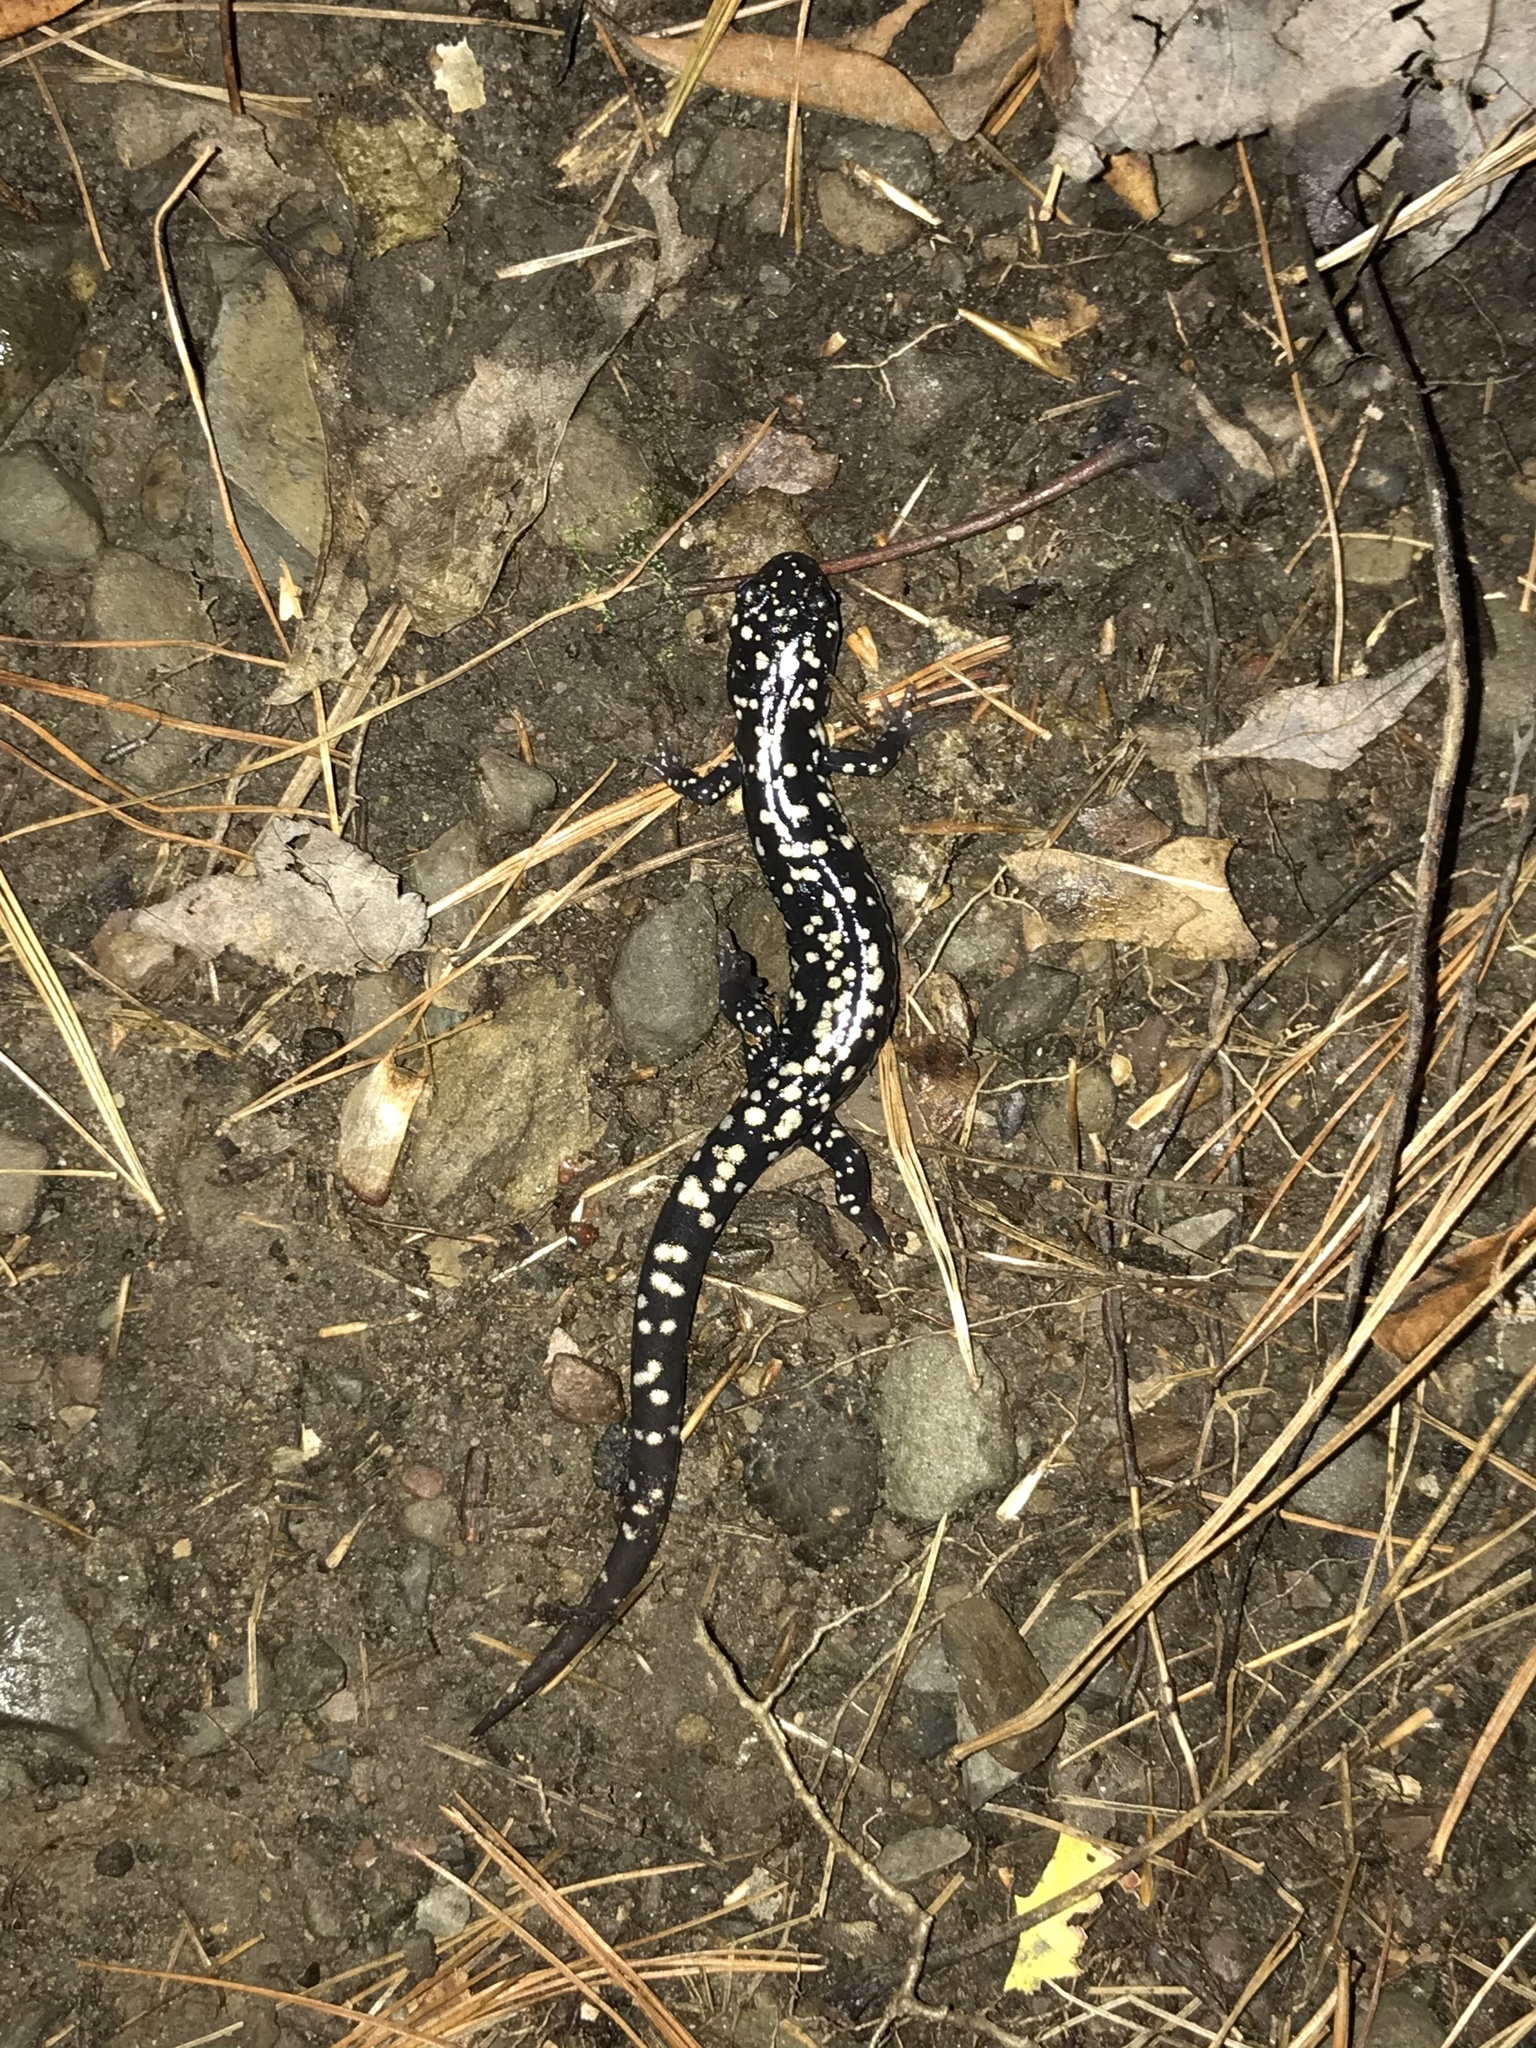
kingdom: Animalia
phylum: Chordata
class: Amphibia
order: Caudata
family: Plethodontidae
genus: Plethodon
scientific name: Plethodon glutinosus
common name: Northern slimy salamander
